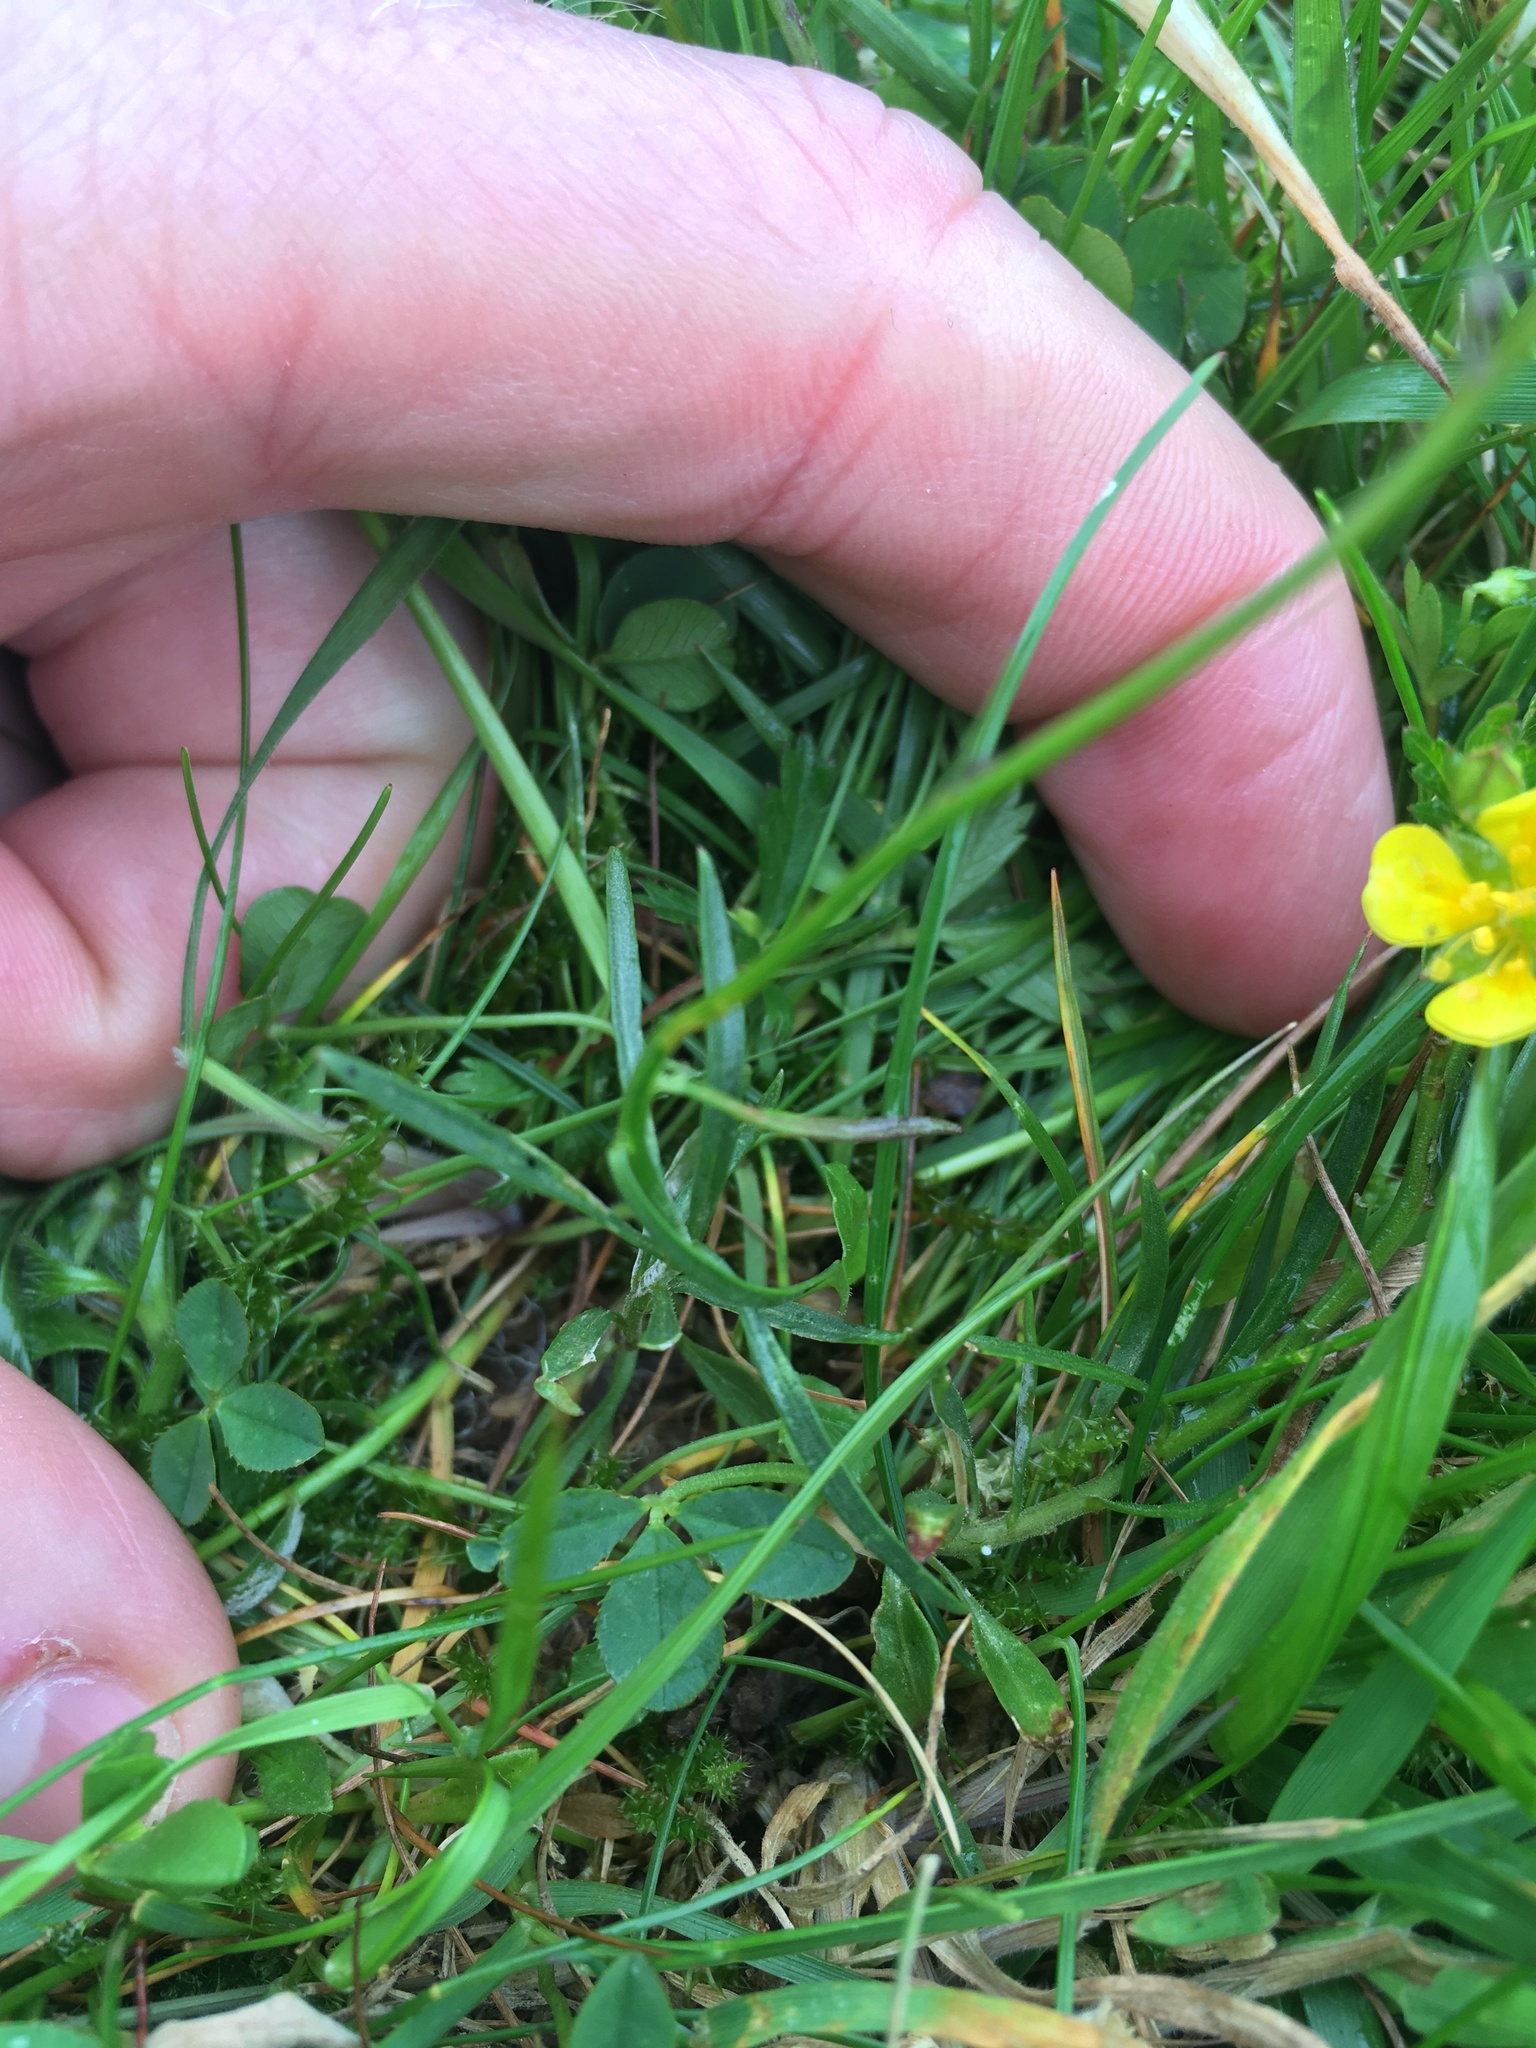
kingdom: Plantae
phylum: Tracheophyta
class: Magnoliopsida
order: Asterales
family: Campanulaceae
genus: Campanula
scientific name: Campanula rotundifolia
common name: Harebell
